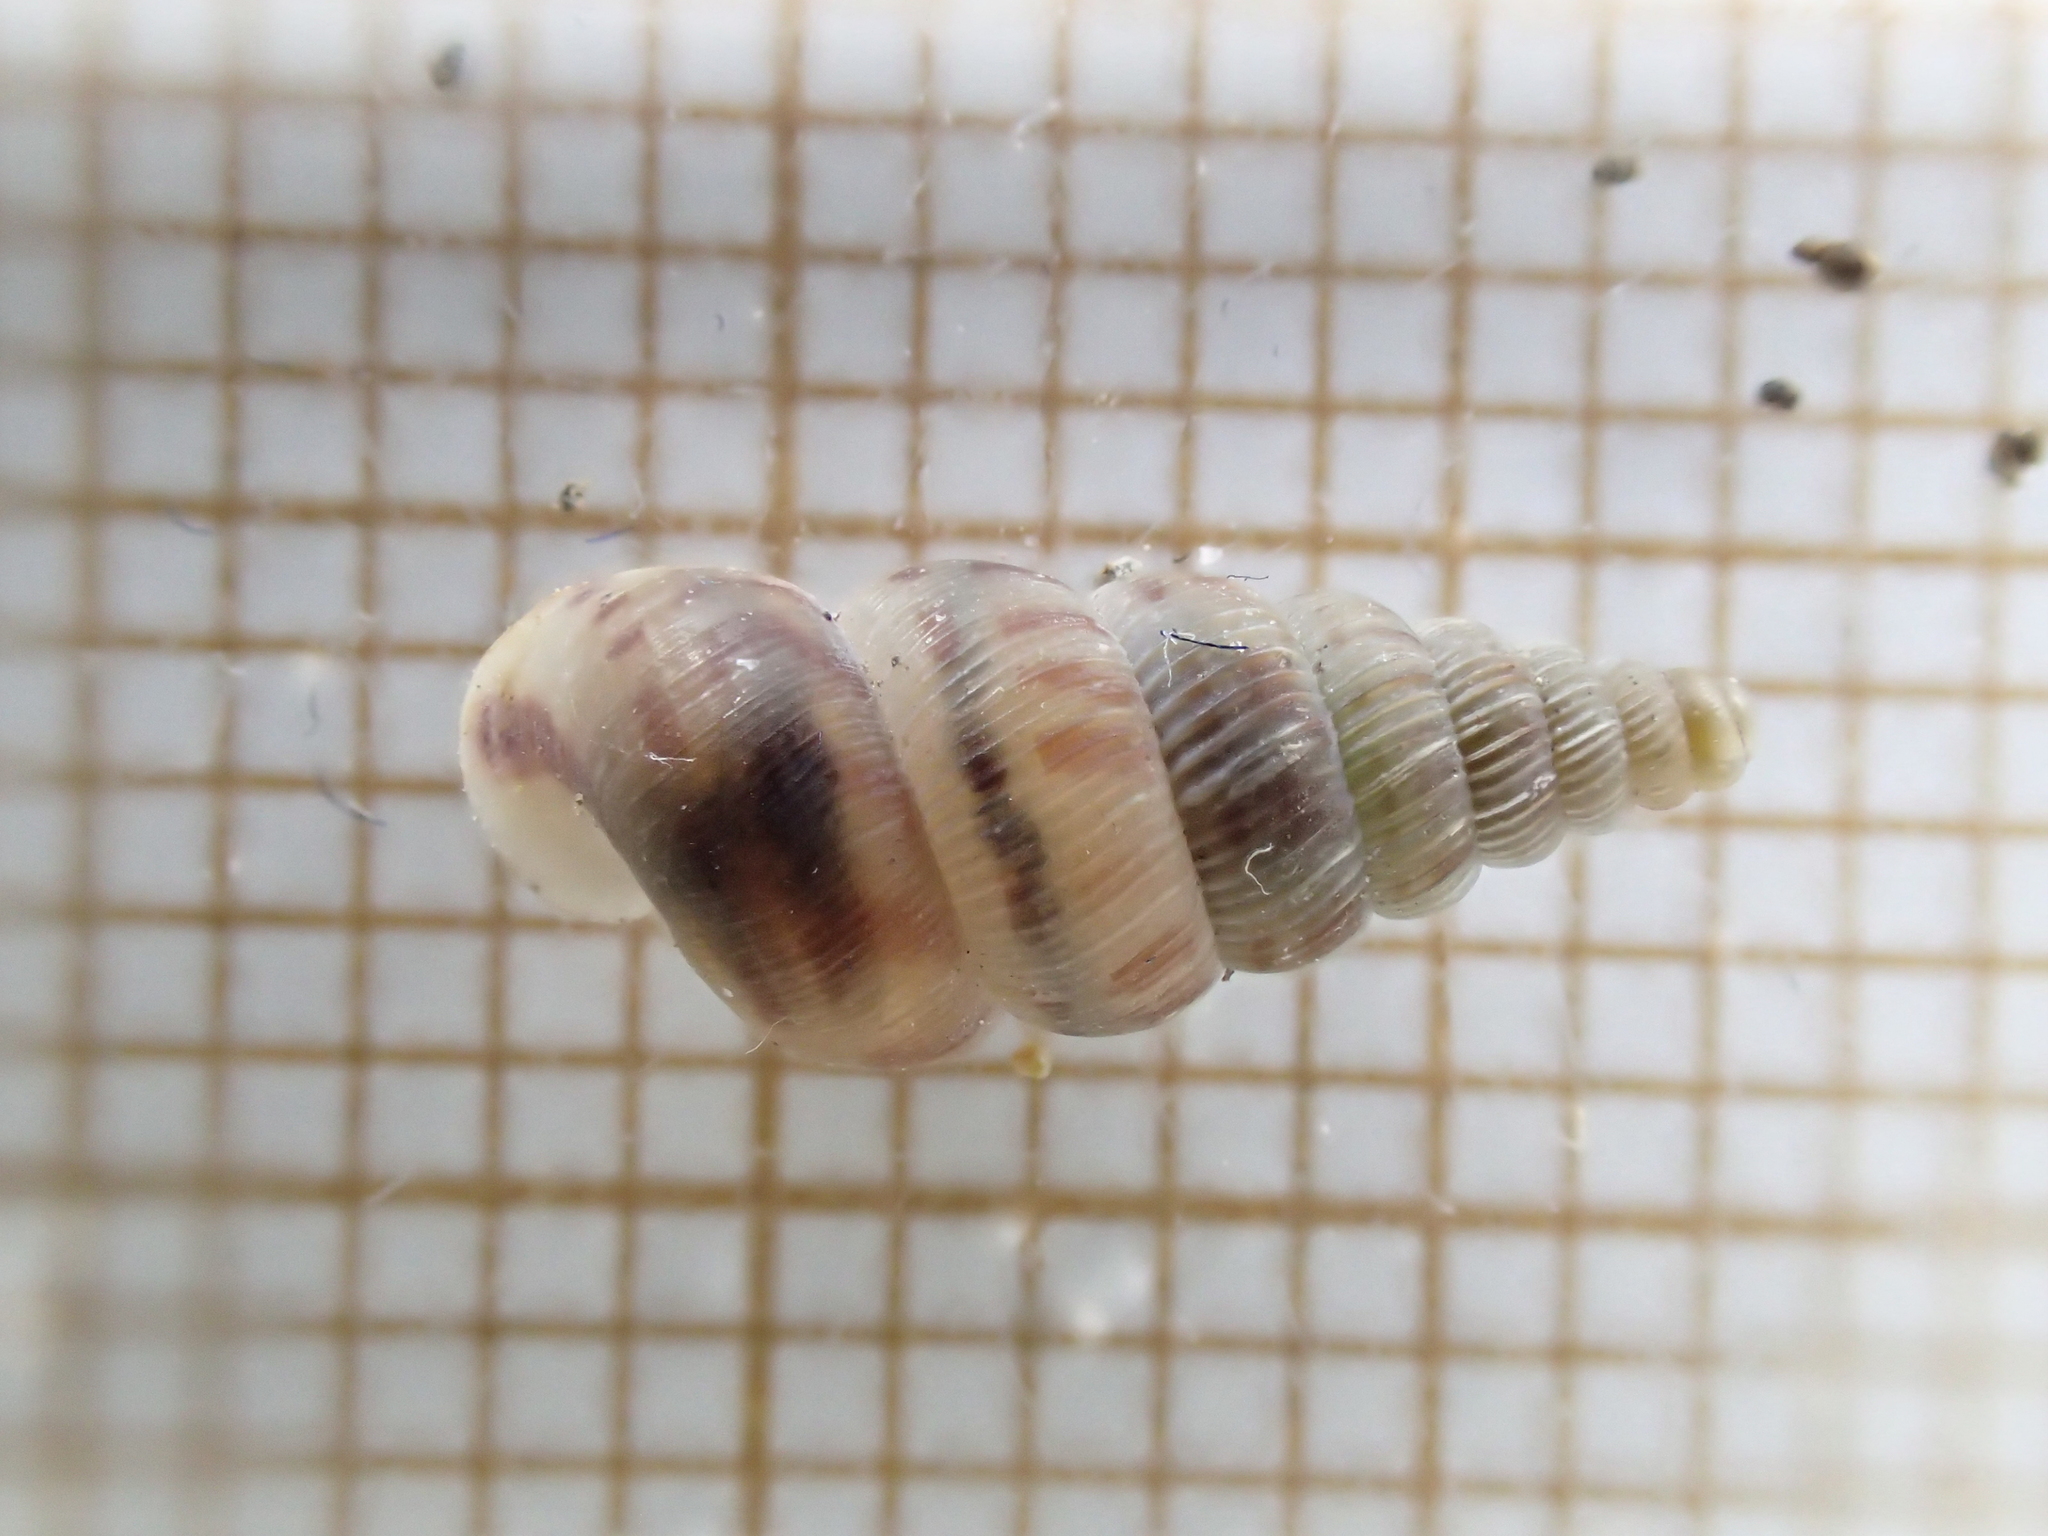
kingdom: Animalia
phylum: Mollusca
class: Gastropoda
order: Architaenioglossa
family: Cochlostomatidae
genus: Cochlostoma
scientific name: Cochlostoma septemspirale
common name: Seven-whorl snail
